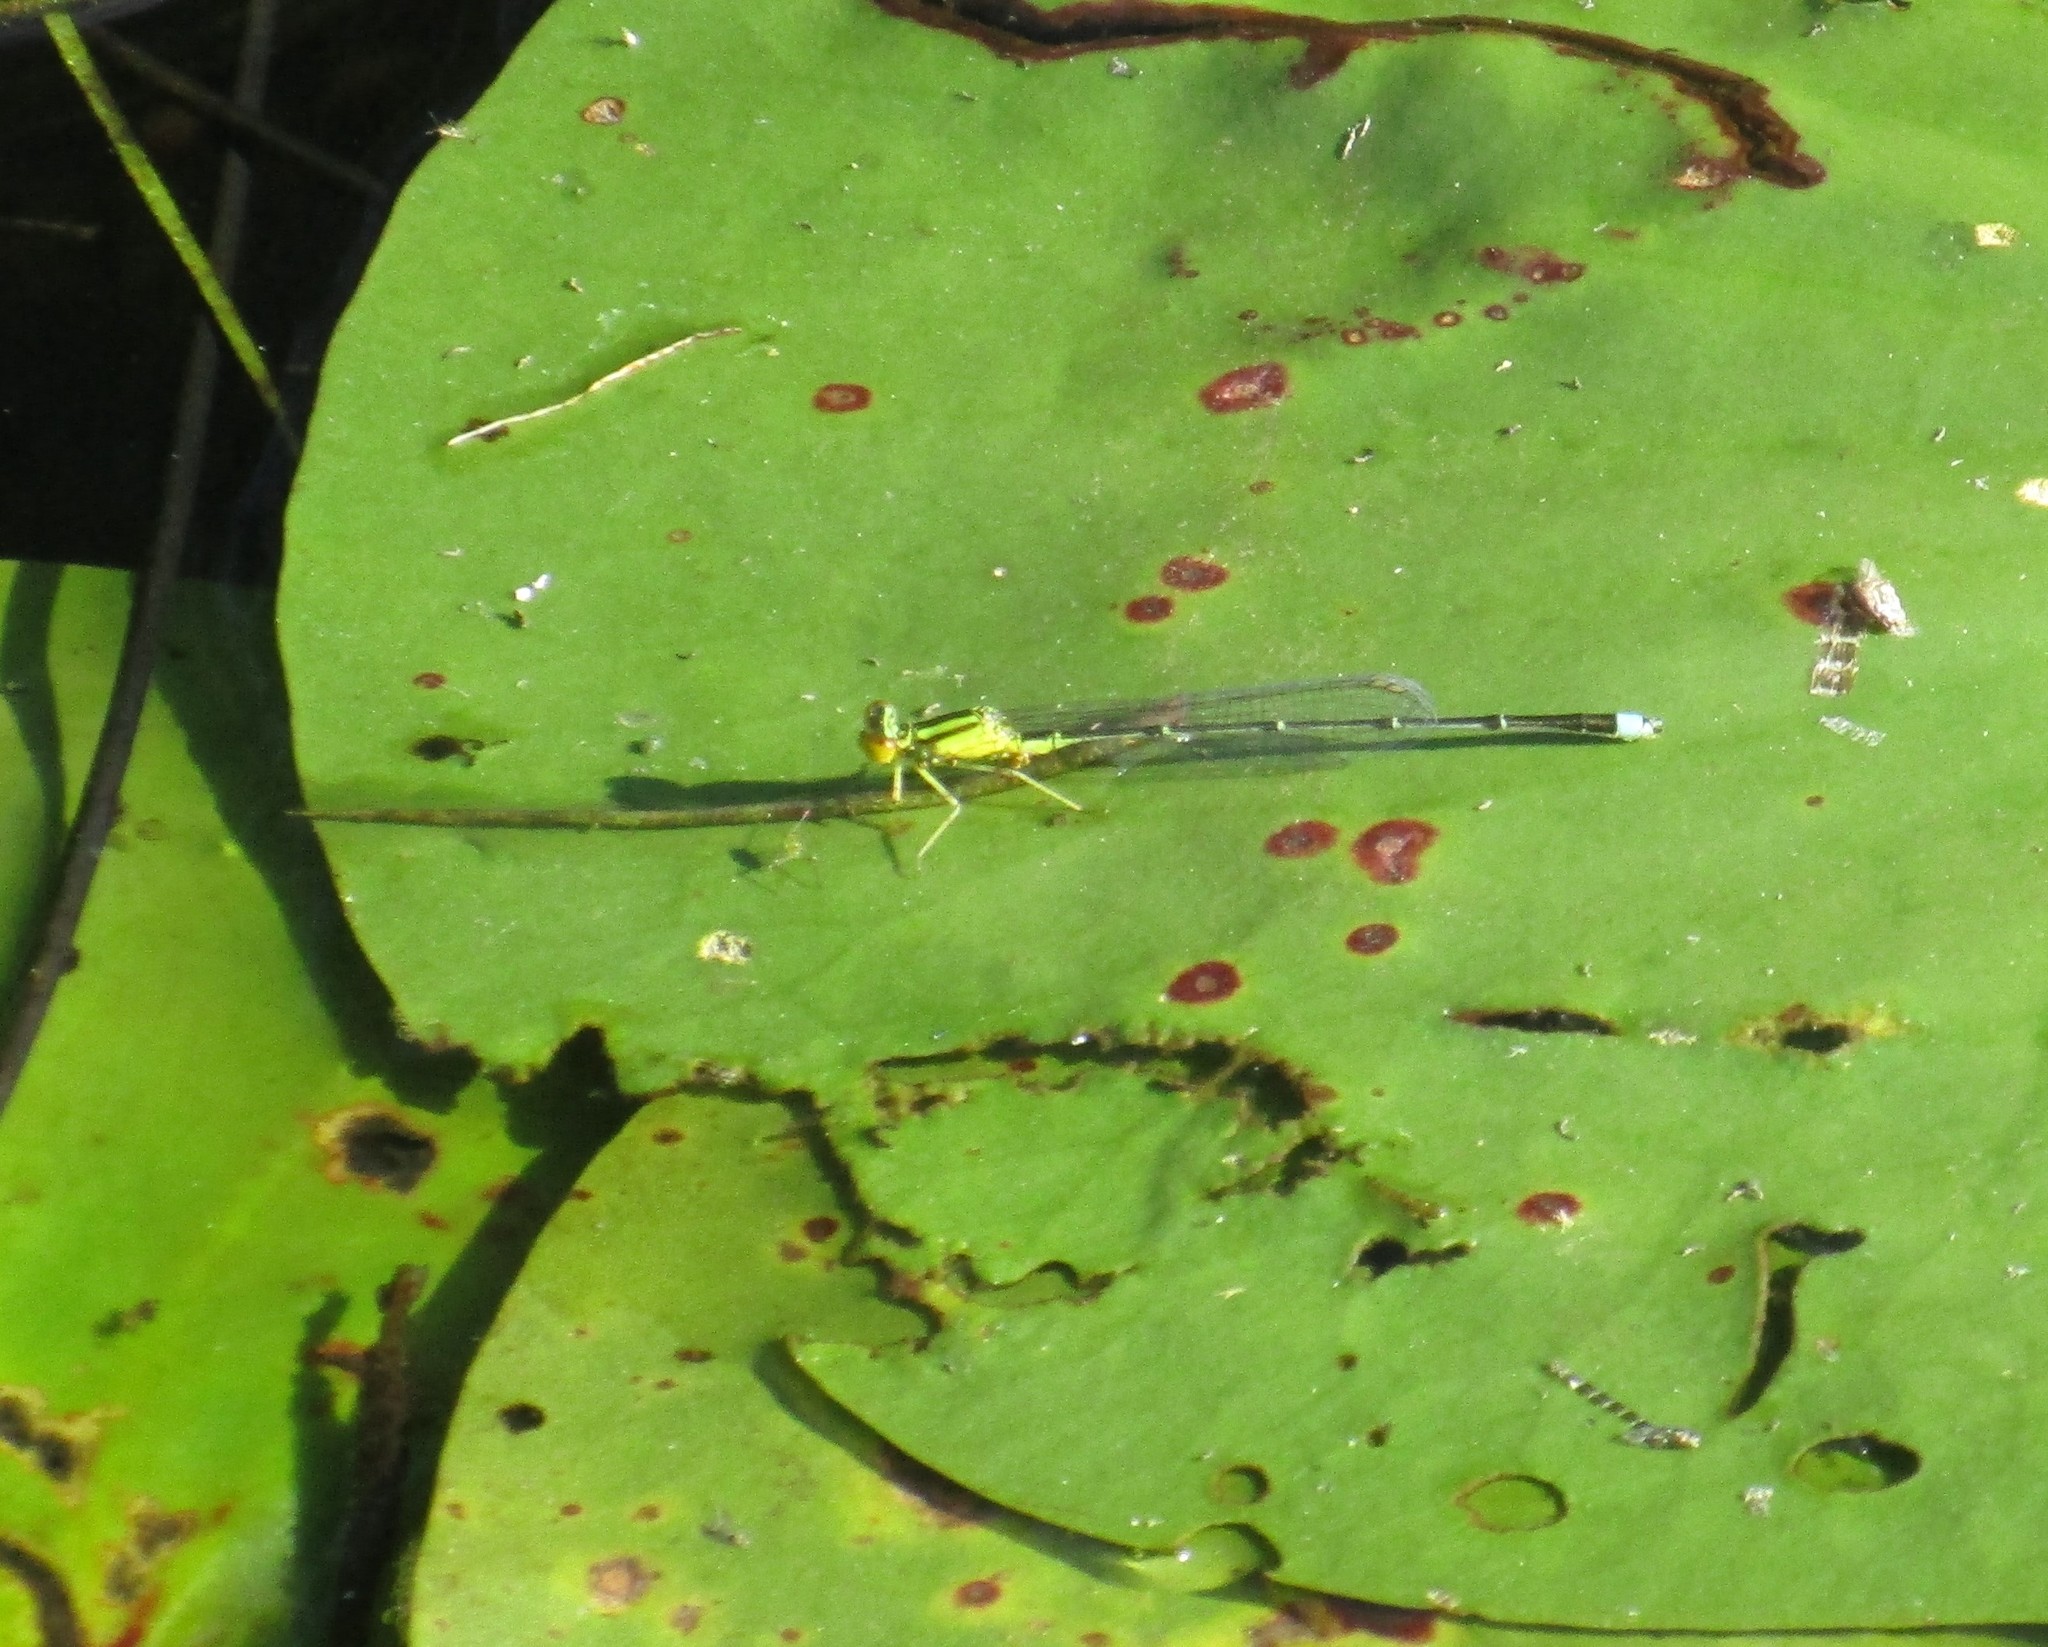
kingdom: Animalia
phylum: Arthropoda
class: Insecta
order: Odonata
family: Coenagrionidae
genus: Enallagma
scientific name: Enallagma vesperum
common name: Vesper bluet
